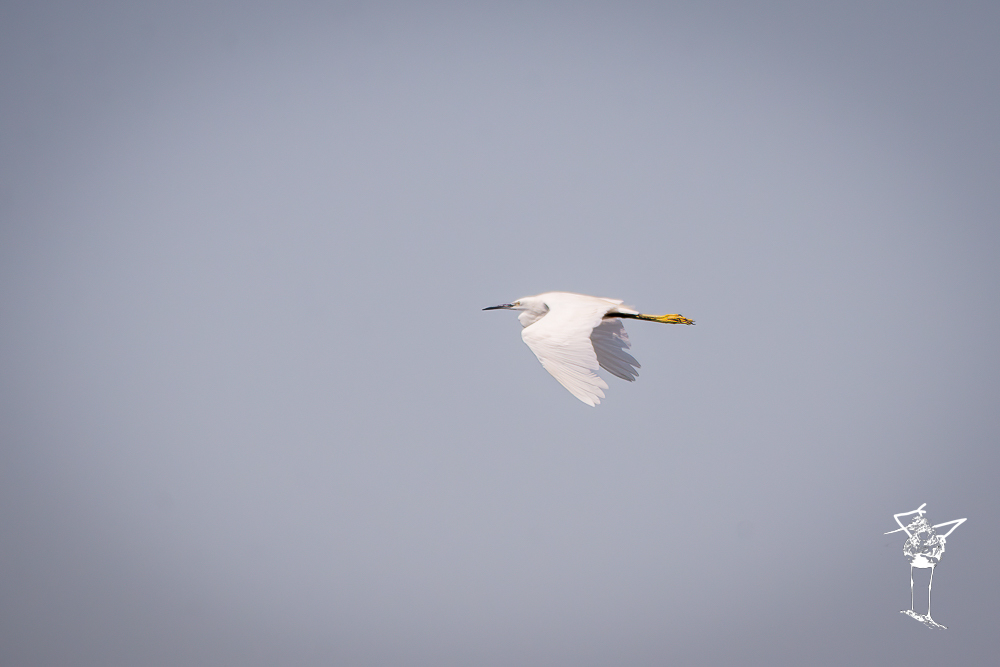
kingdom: Animalia
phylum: Chordata
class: Aves
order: Pelecaniformes
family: Ardeidae
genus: Egretta
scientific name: Egretta garzetta
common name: Little egret
